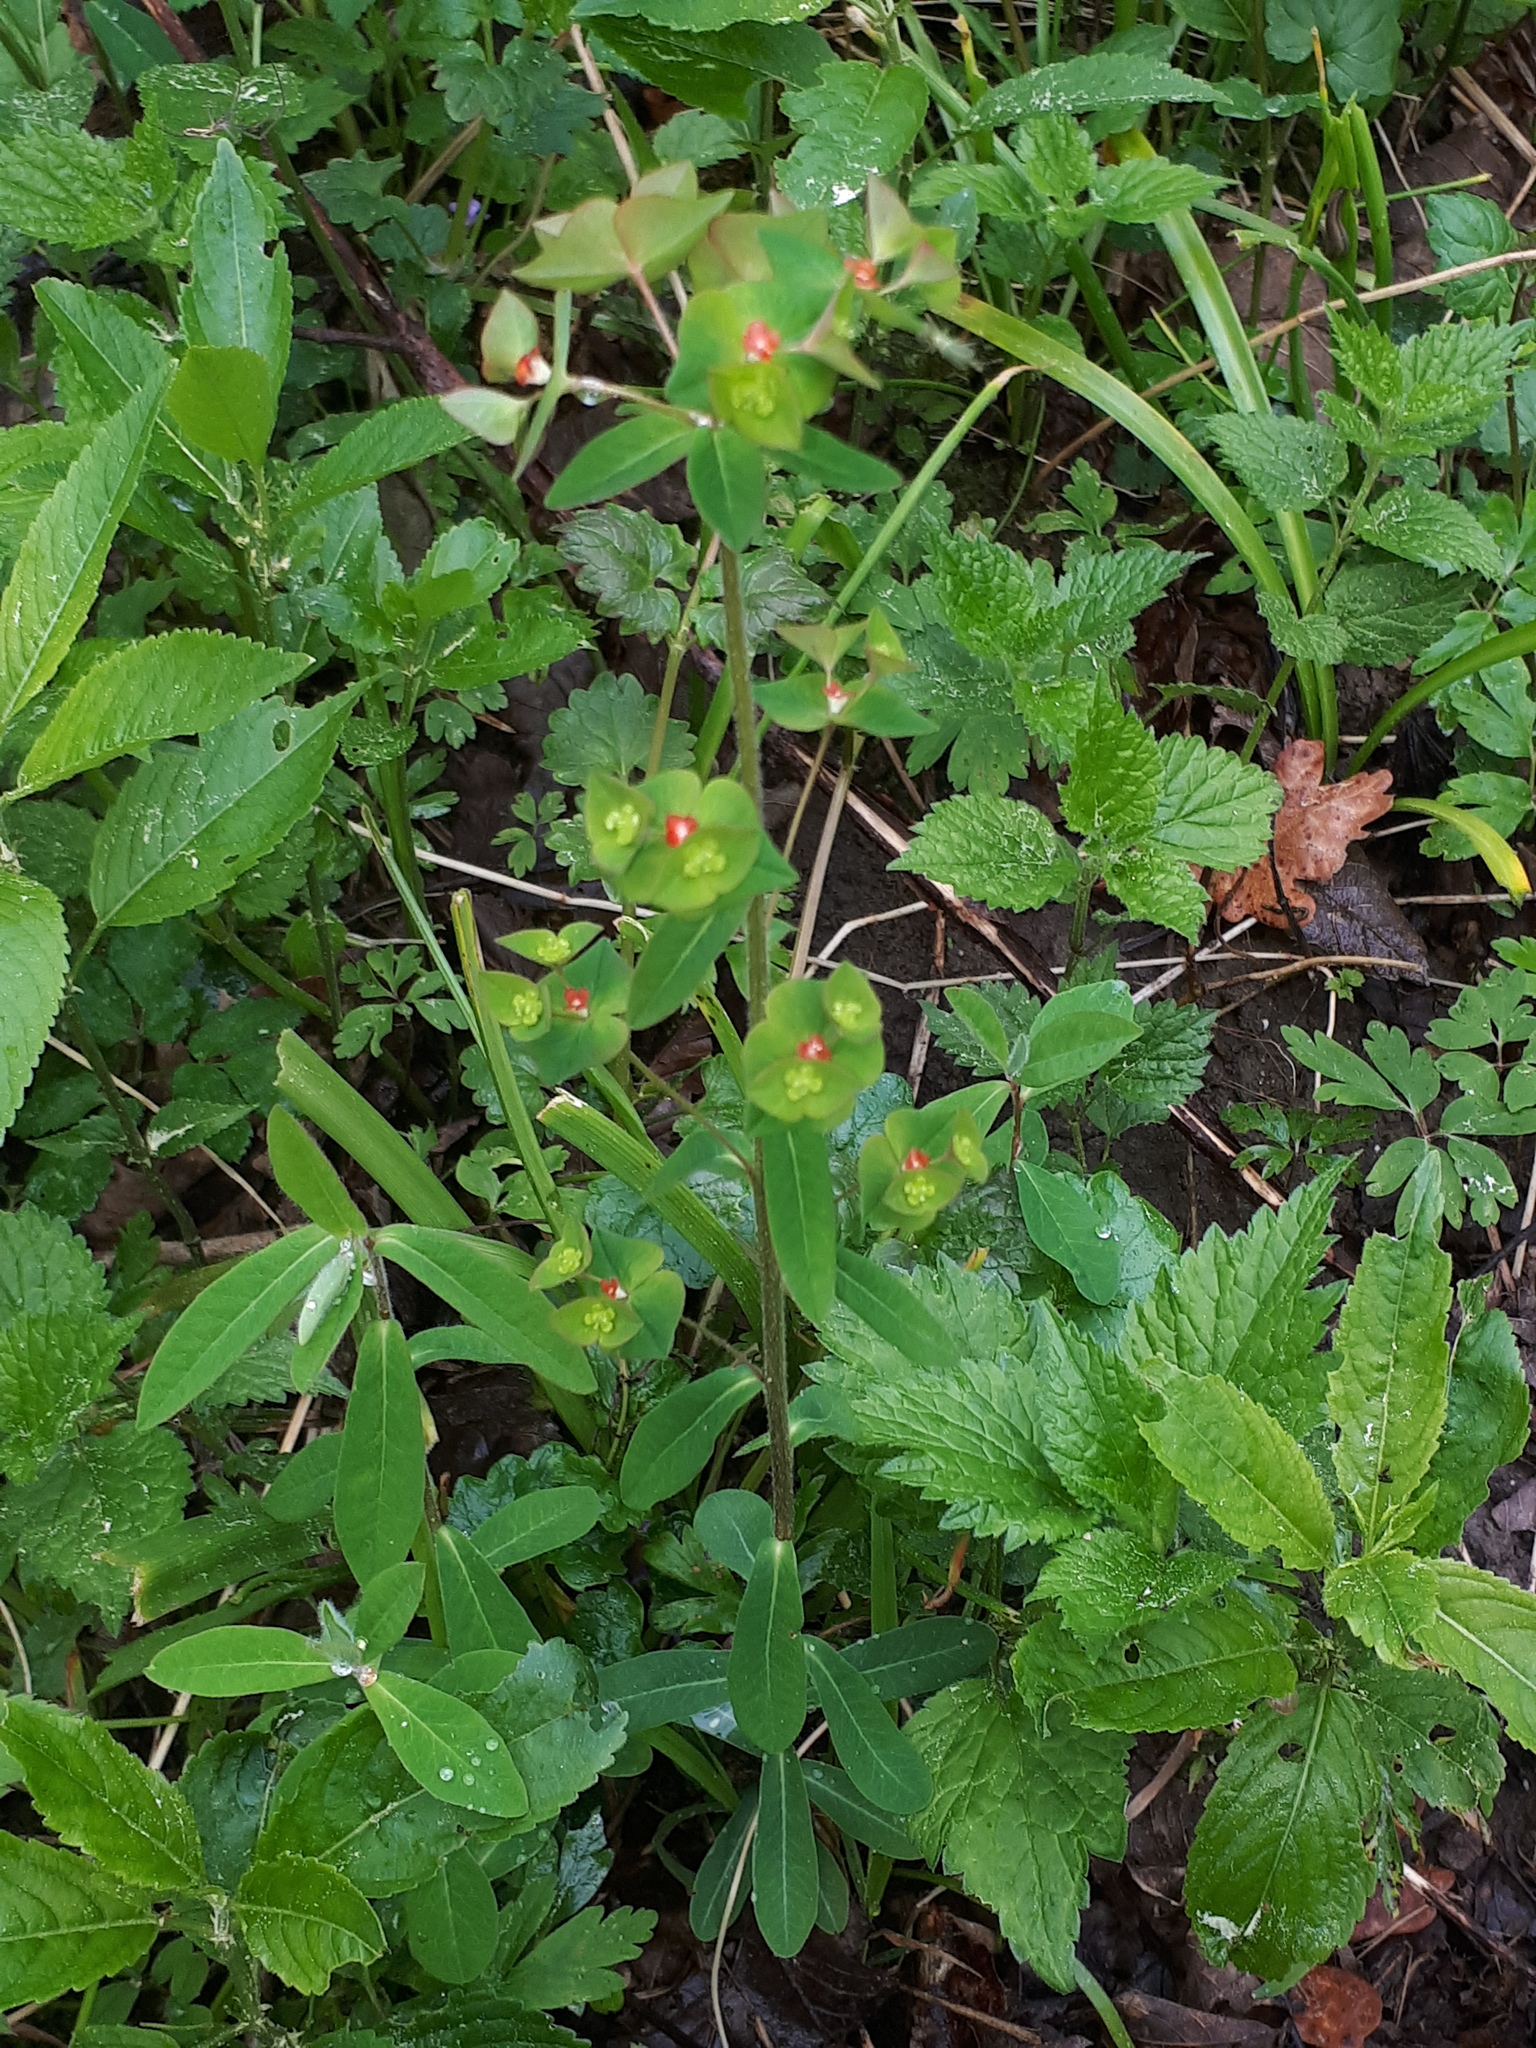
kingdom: Plantae
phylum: Tracheophyta
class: Magnoliopsida
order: Malpighiales
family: Euphorbiaceae
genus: Euphorbia
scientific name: Euphorbia dulcis
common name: Sweet spurge
